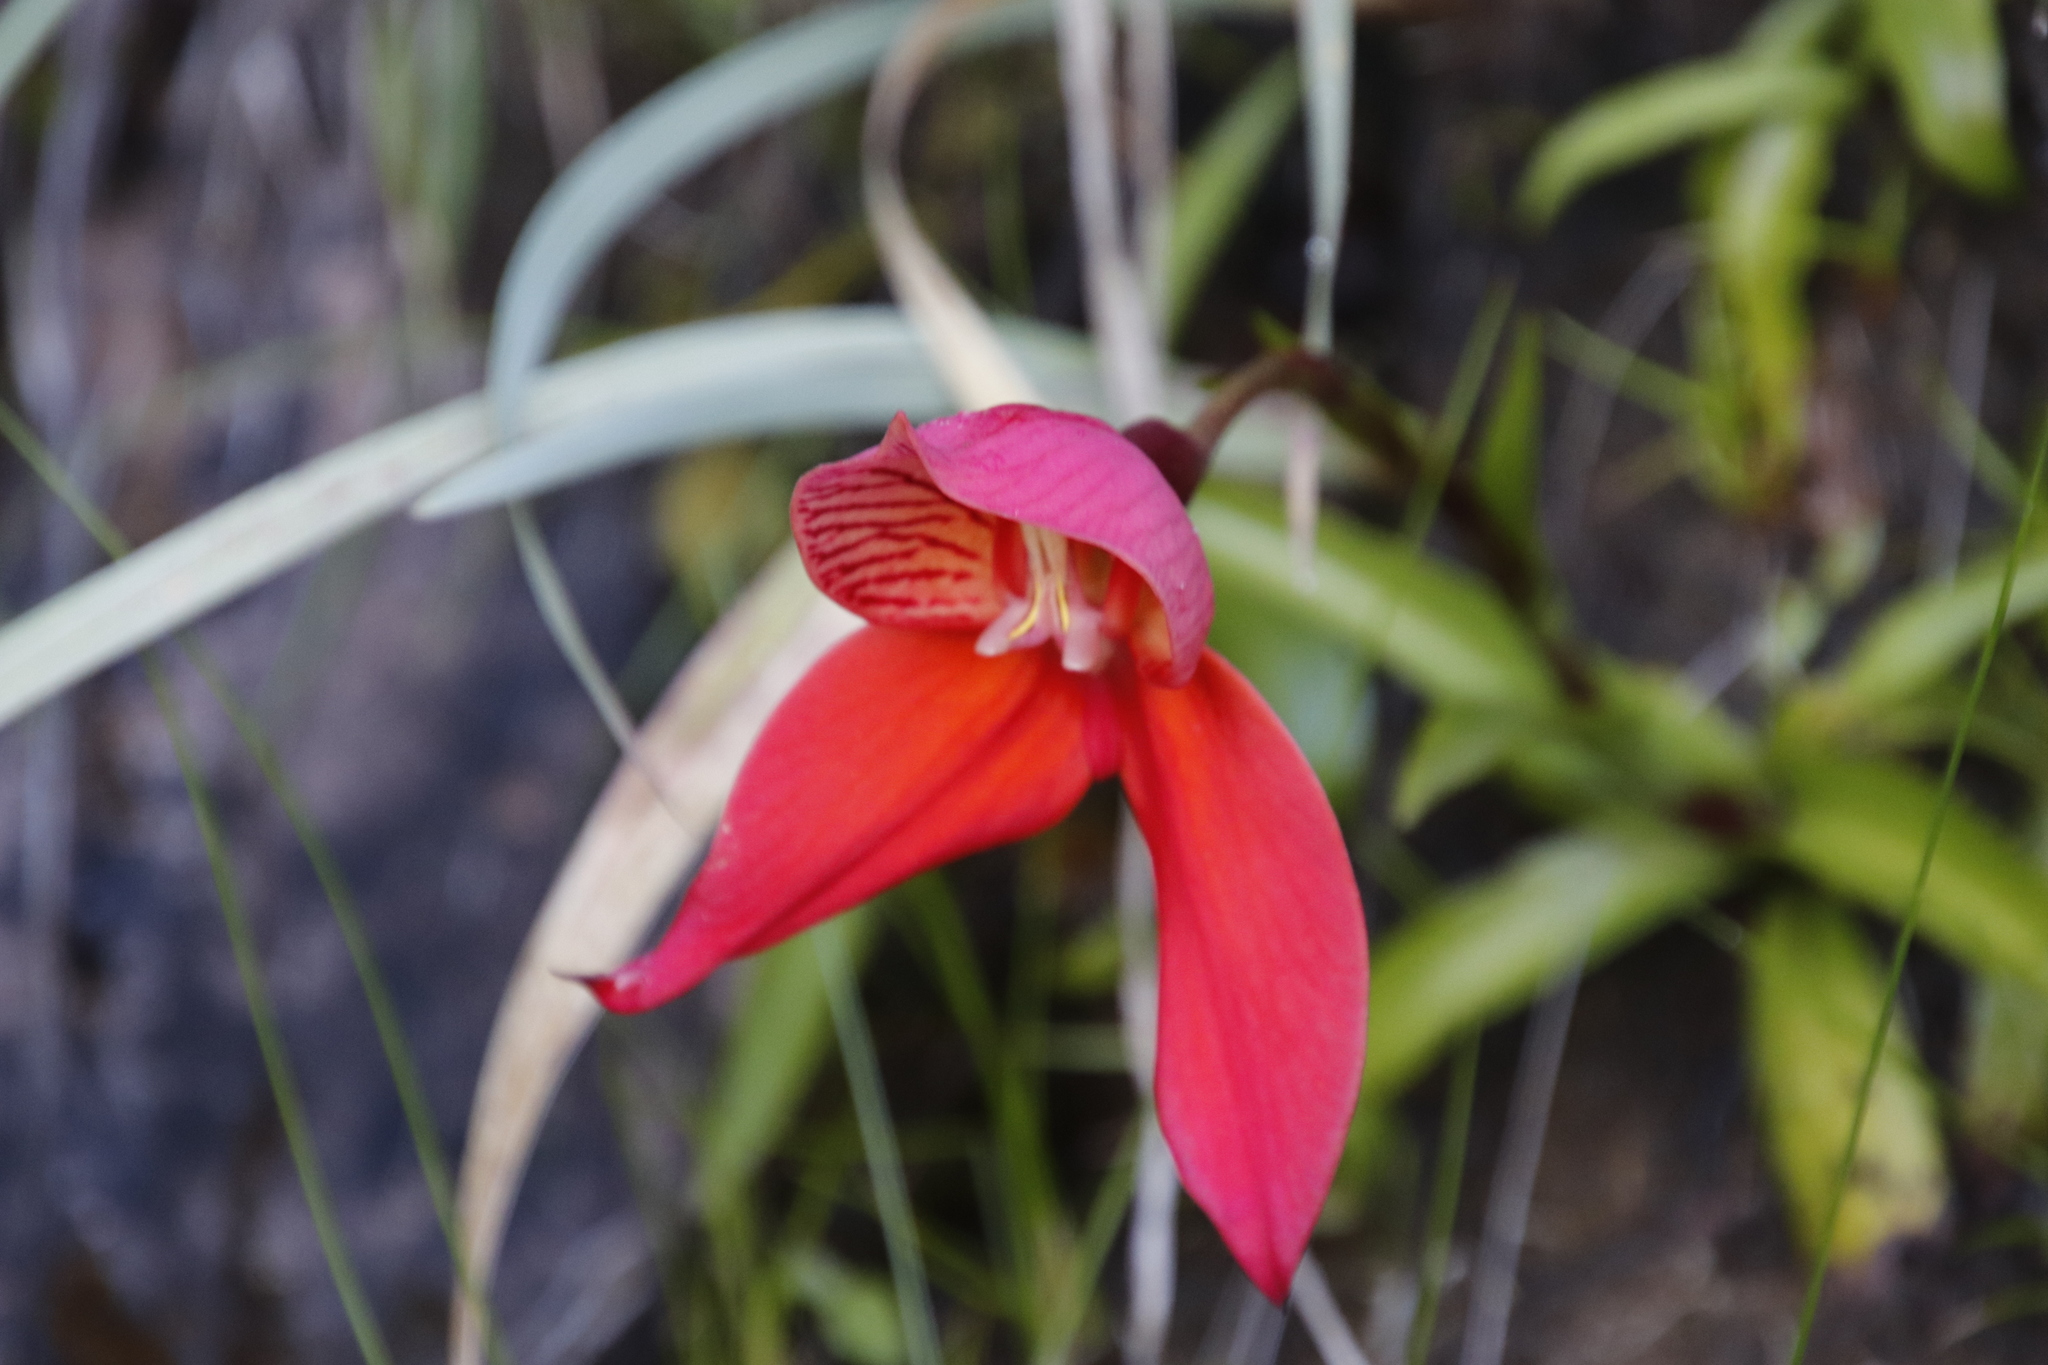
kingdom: Plantae
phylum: Tracheophyta
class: Liliopsida
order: Asparagales
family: Orchidaceae
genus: Disa
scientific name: Disa uniflora
